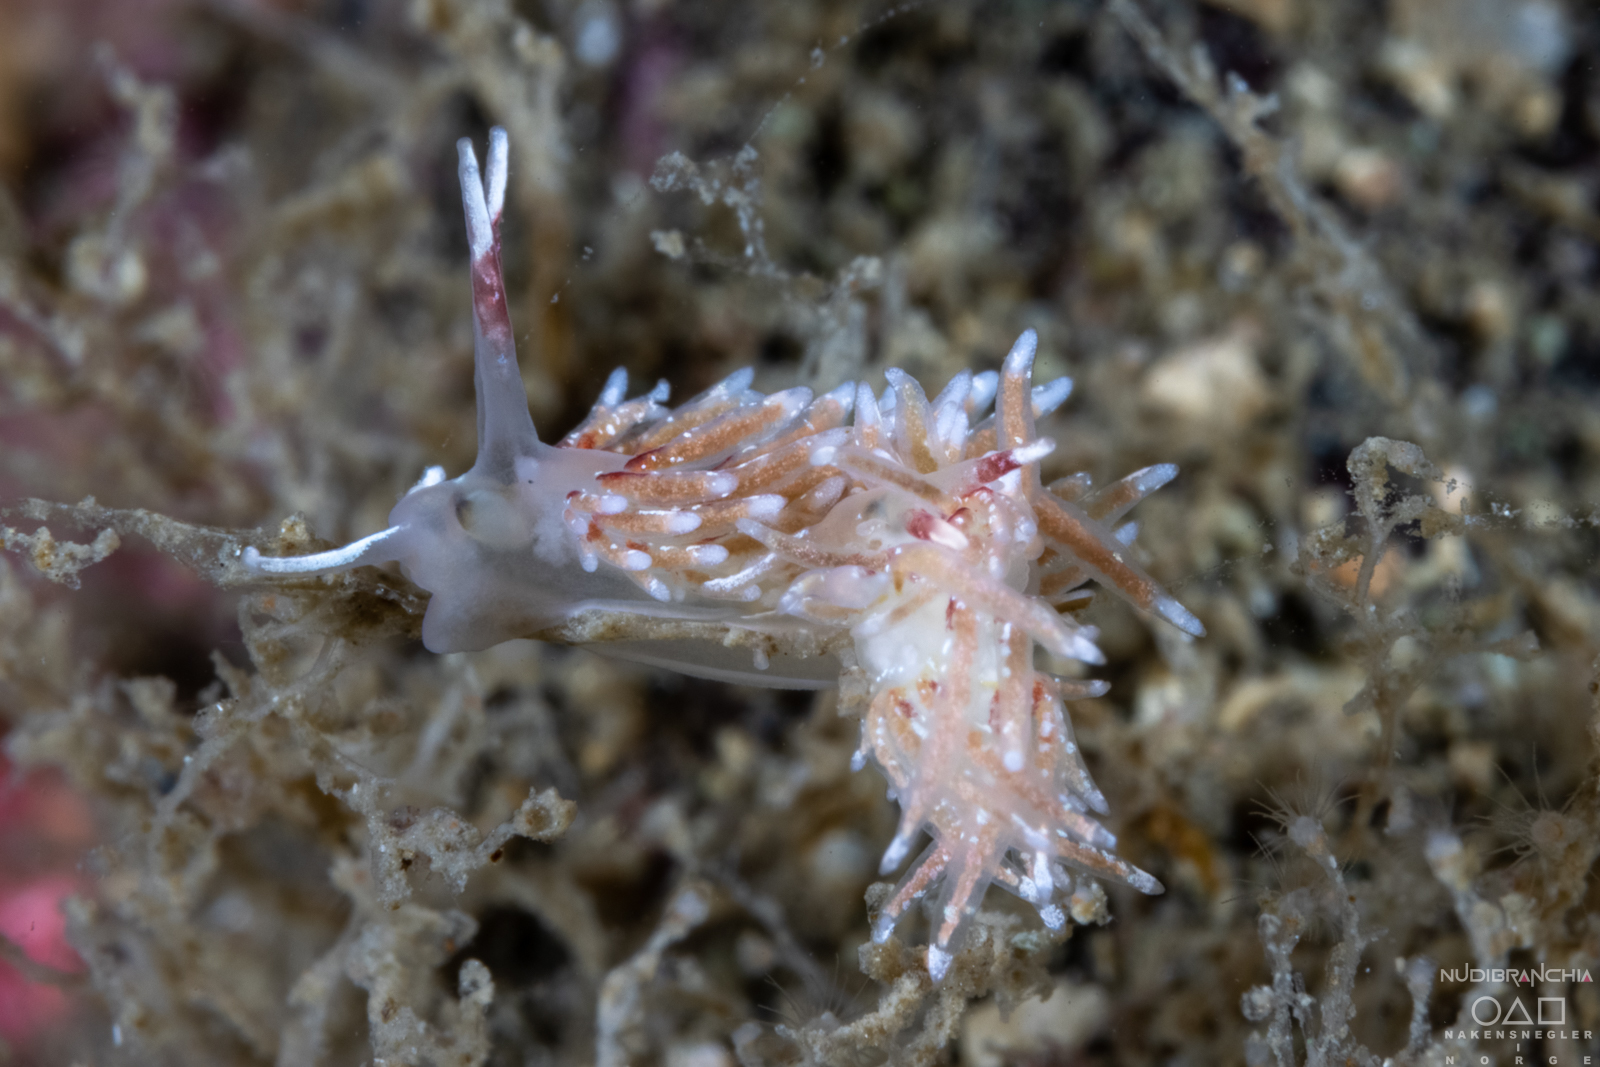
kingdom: Animalia
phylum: Mollusca
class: Gastropoda
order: Nudibranchia
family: Trinchesiidae
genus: Rubramoena
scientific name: Rubramoena rubescens
